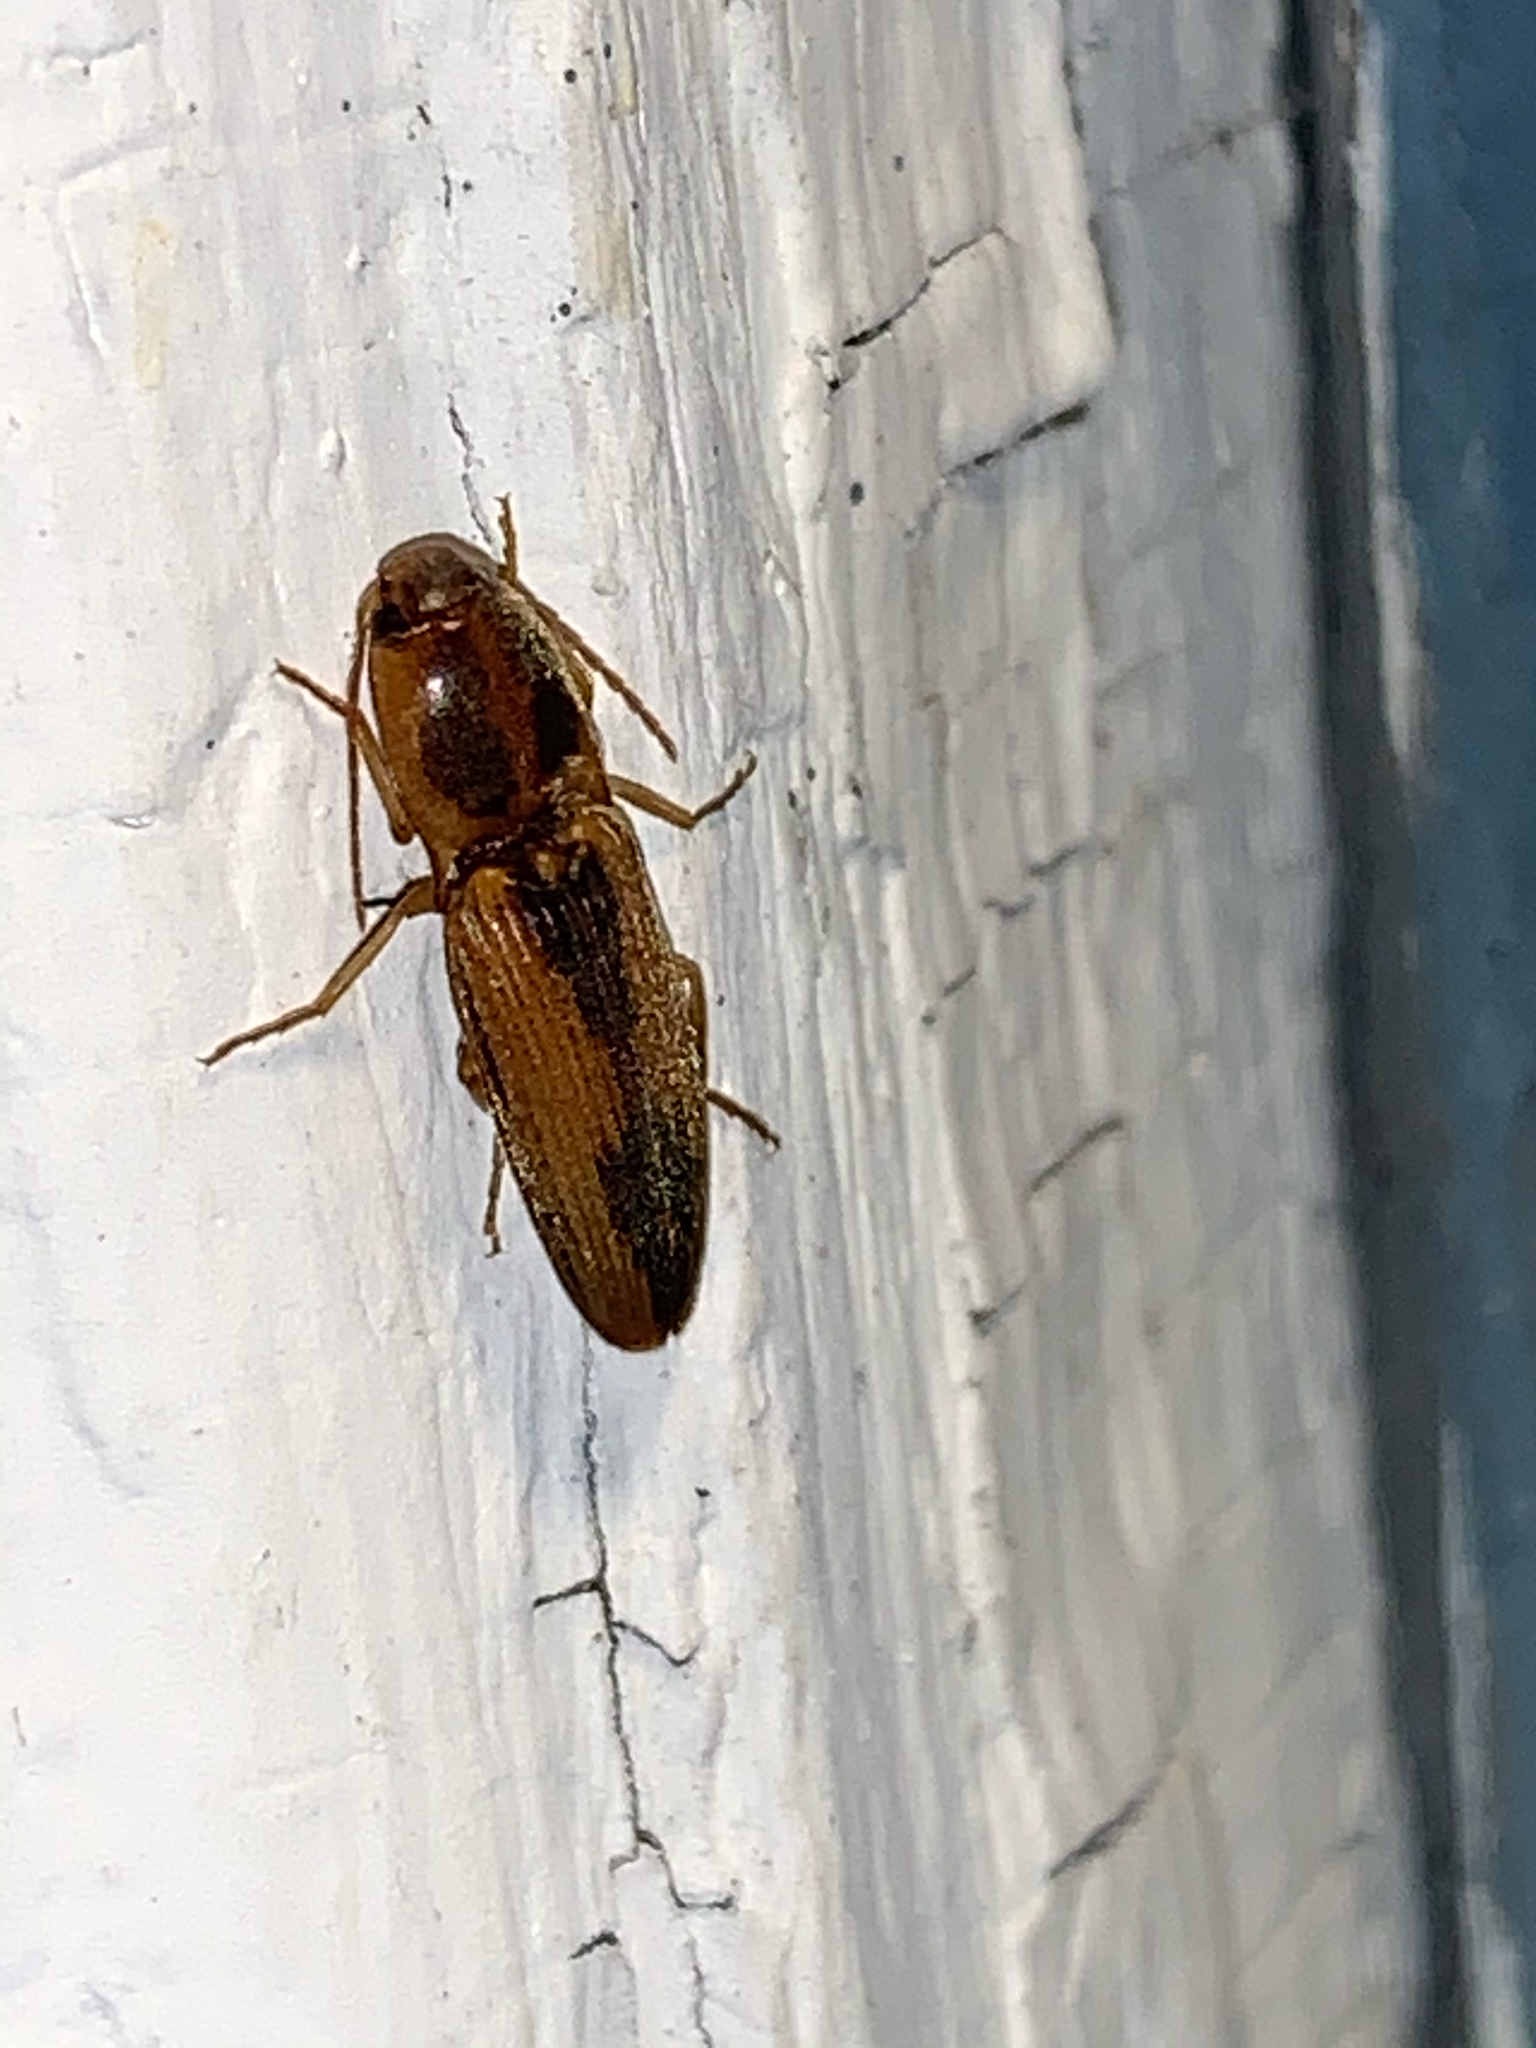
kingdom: Animalia
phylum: Arthropoda
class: Insecta
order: Coleoptera
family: Elateridae
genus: Monocrepidius
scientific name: Monocrepidius
